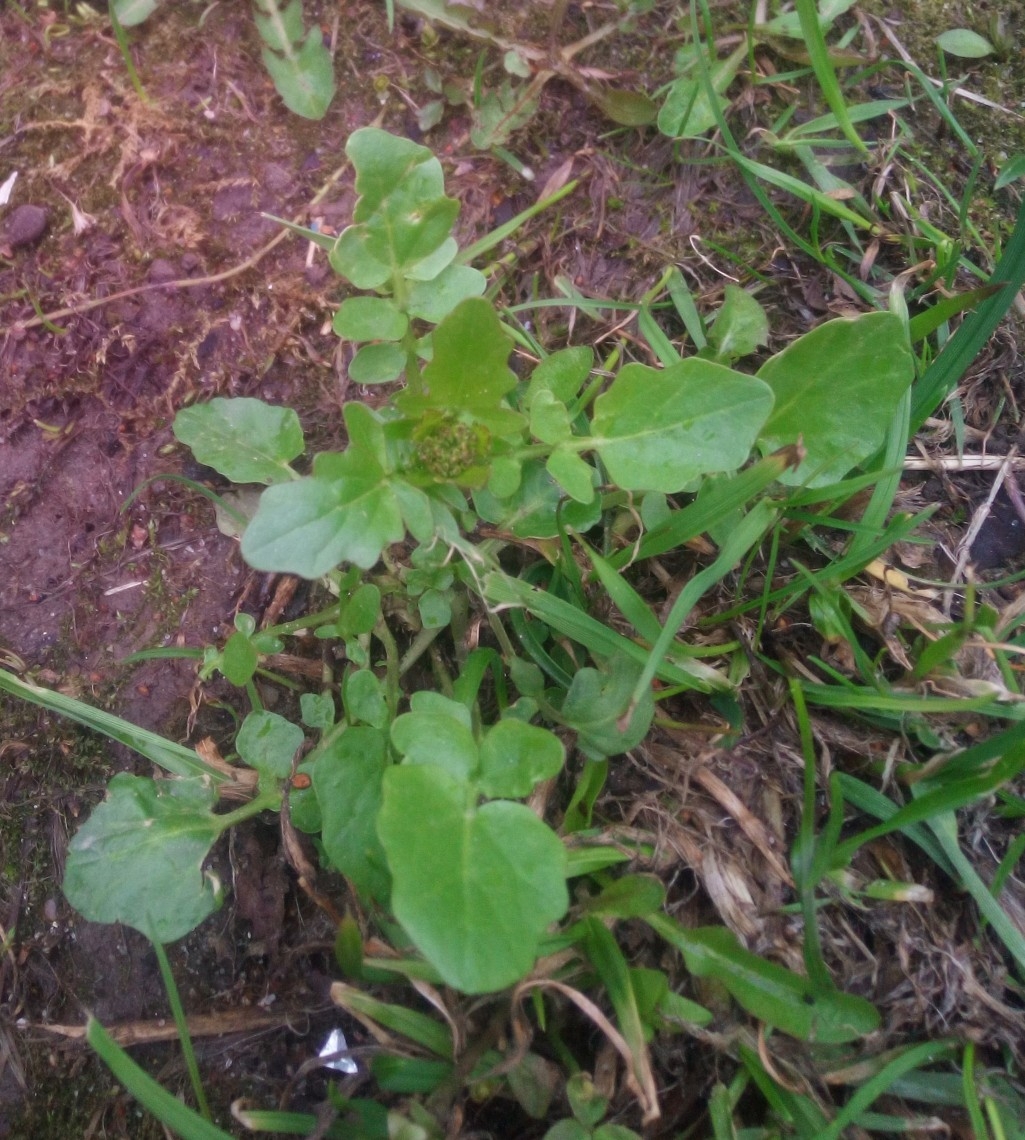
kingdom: Plantae
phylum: Tracheophyta
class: Magnoliopsida
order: Brassicales
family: Brassicaceae
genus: Barbarea
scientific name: Barbarea vulgaris
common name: Cressy-greens
